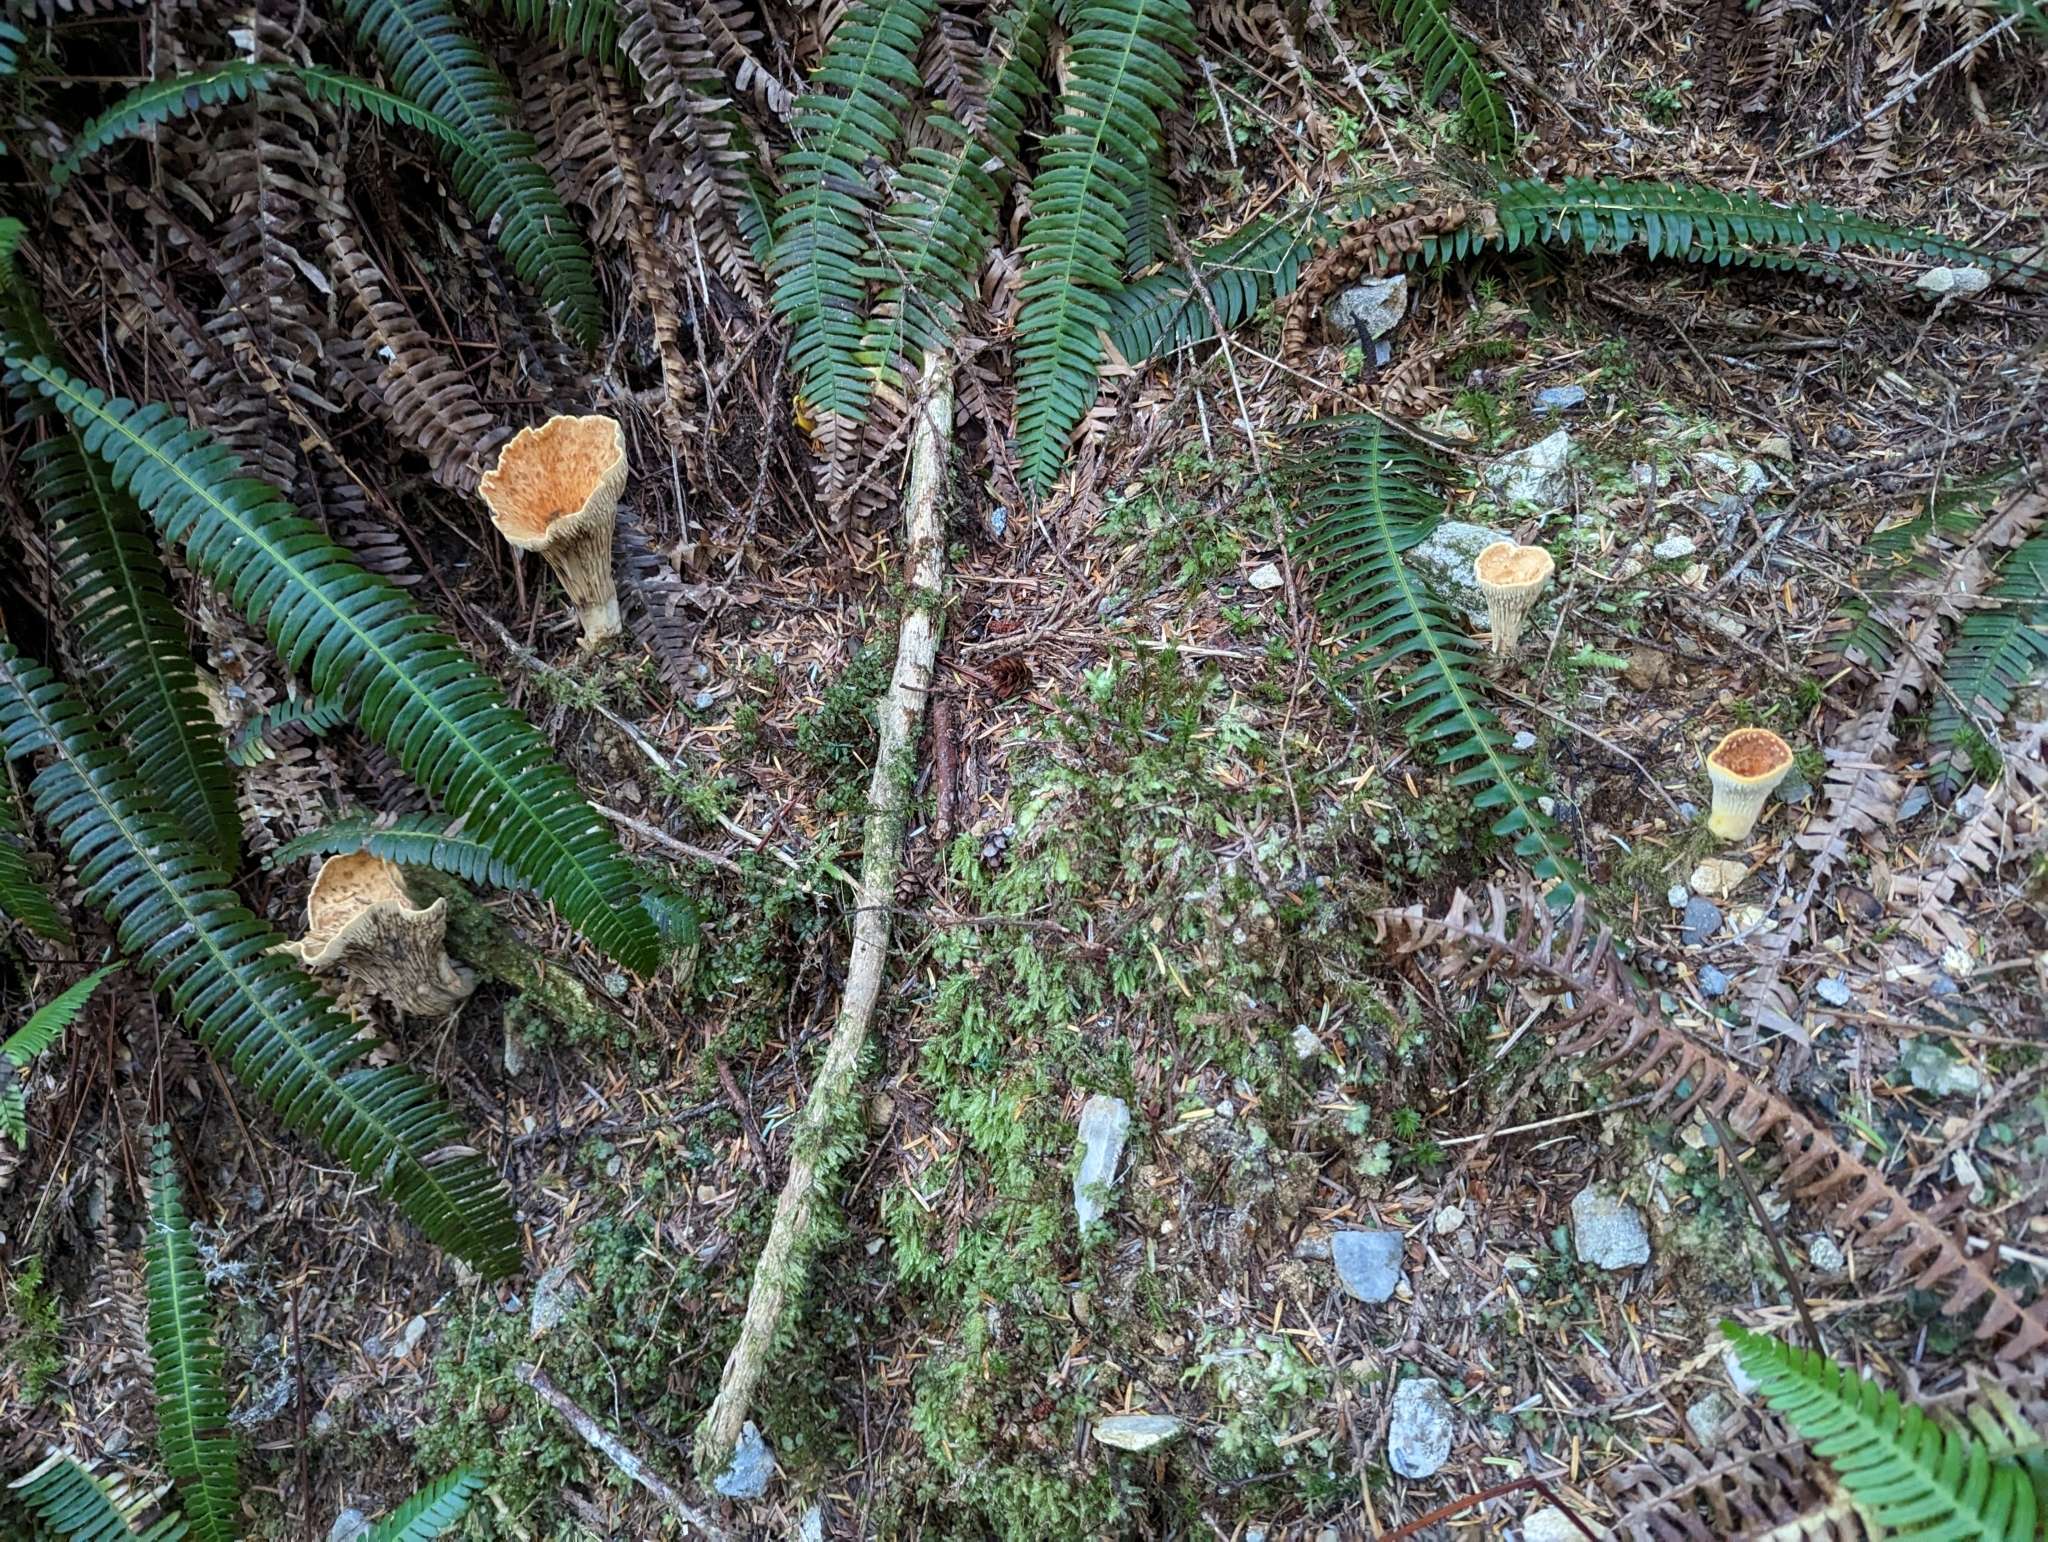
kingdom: Fungi
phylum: Basidiomycota
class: Agaricomycetes
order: Gomphales
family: Gomphaceae
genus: Turbinellus
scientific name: Turbinellus floccosus
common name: Scaly chanterelle
